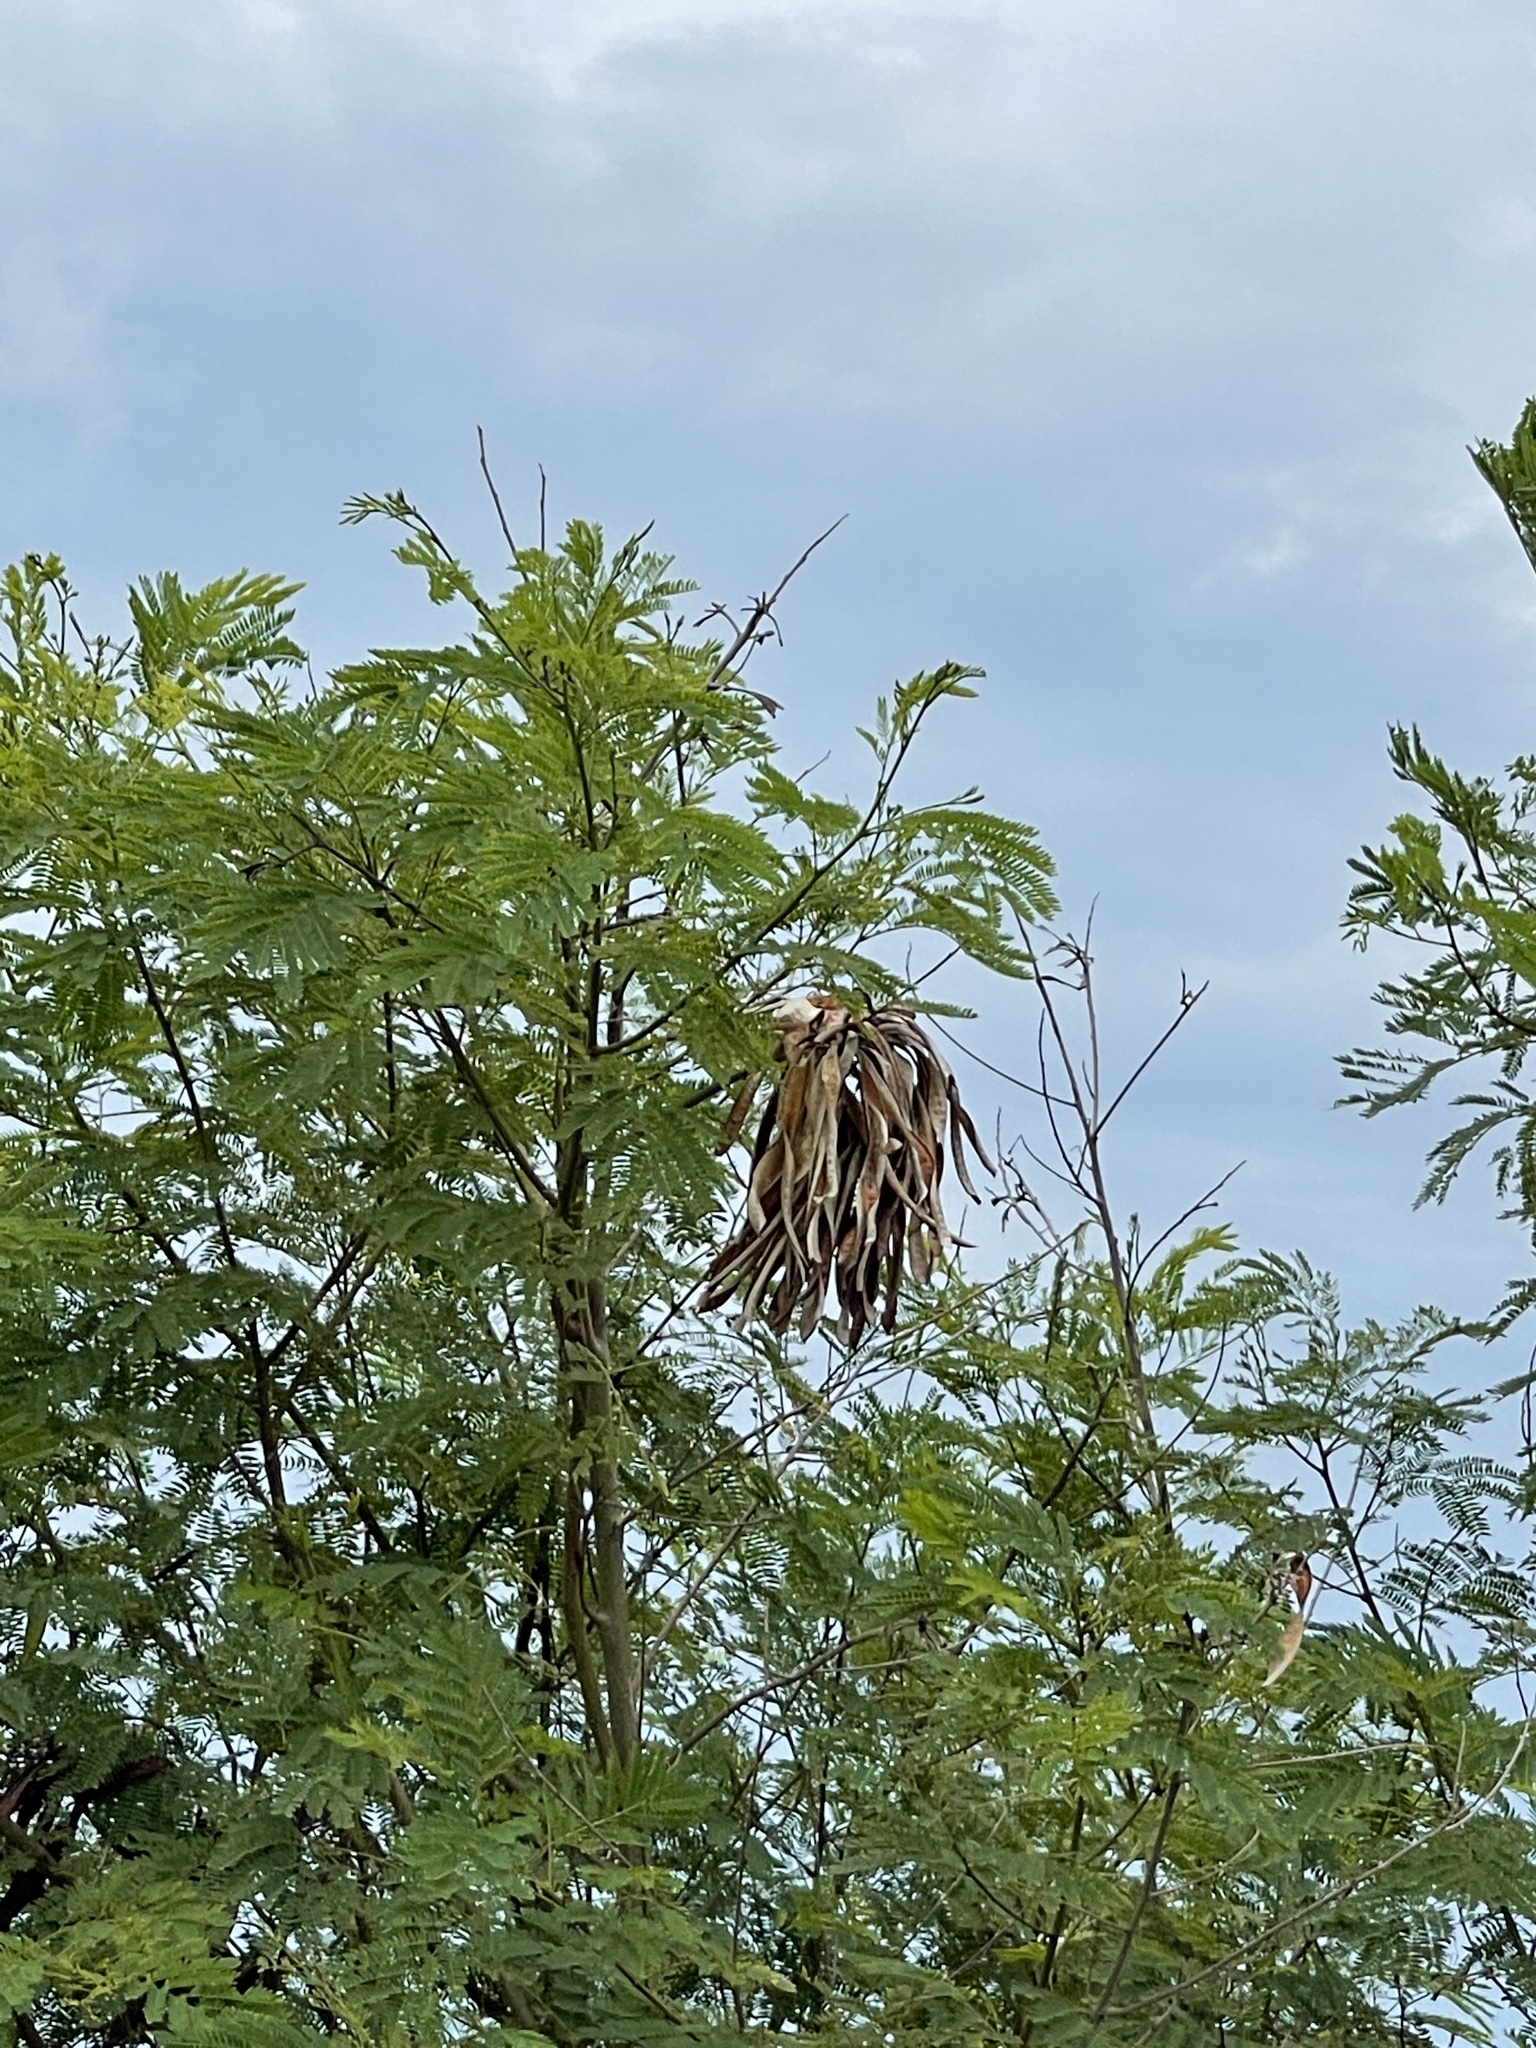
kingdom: Plantae
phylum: Tracheophyta
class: Magnoliopsida
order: Fabales
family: Fabaceae
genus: Leucaena
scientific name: Leucaena leucocephala
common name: White leadtree
